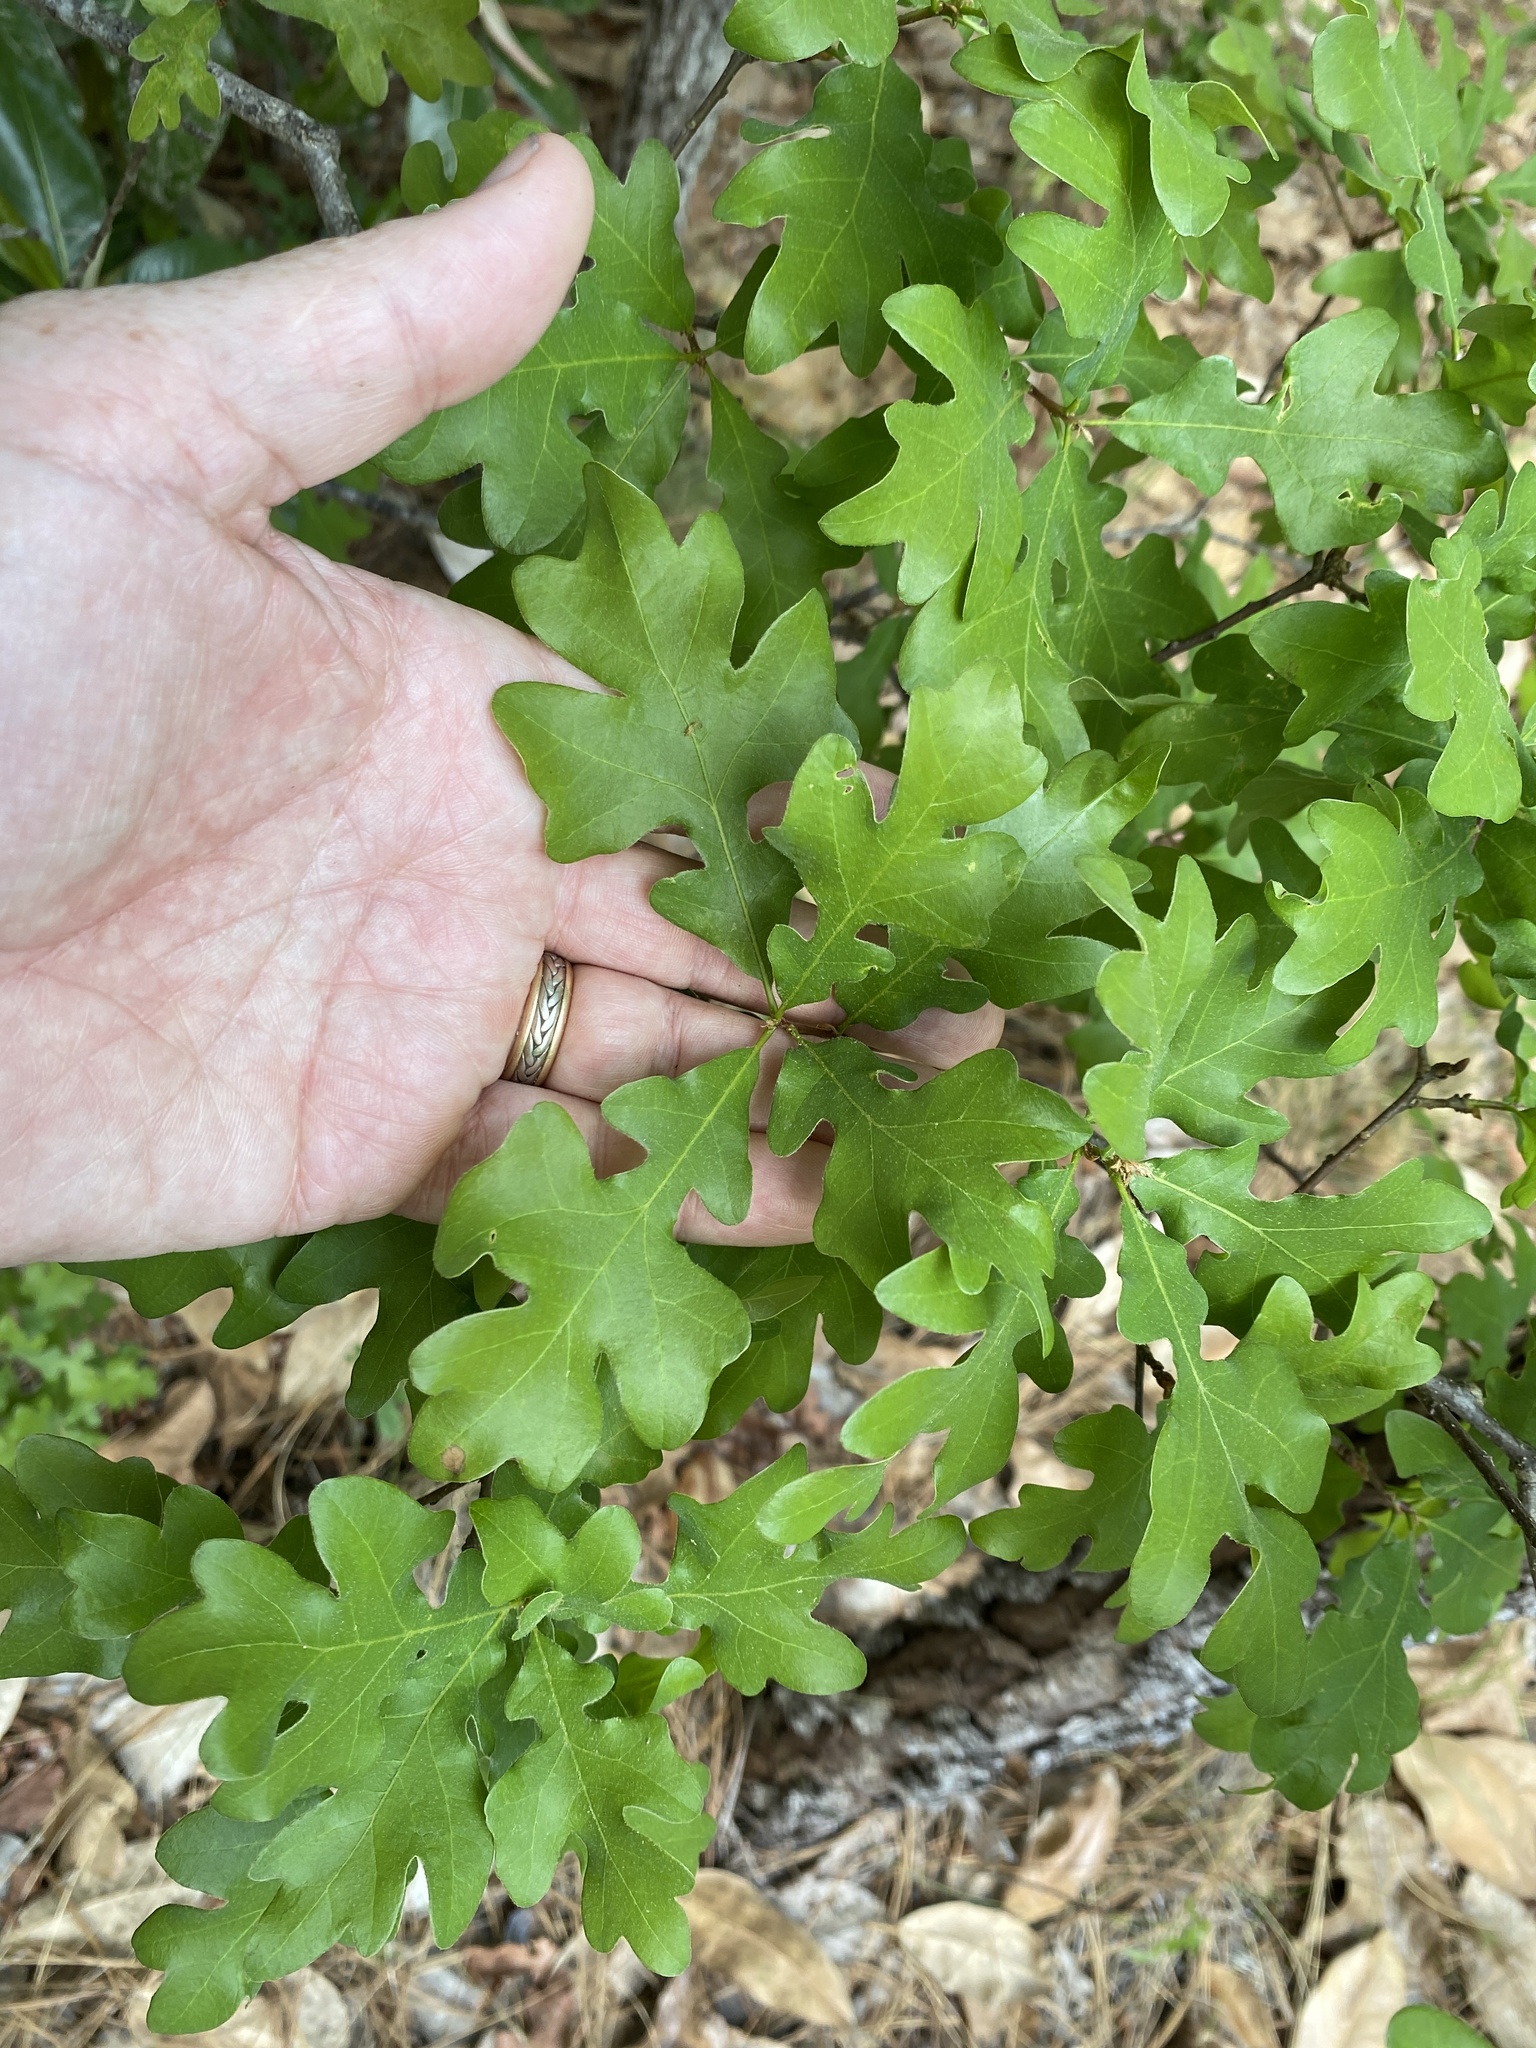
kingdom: Plantae
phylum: Tracheophyta
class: Magnoliopsida
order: Fagales
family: Fagaceae
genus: Quercus
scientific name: Quercus margaretiae
